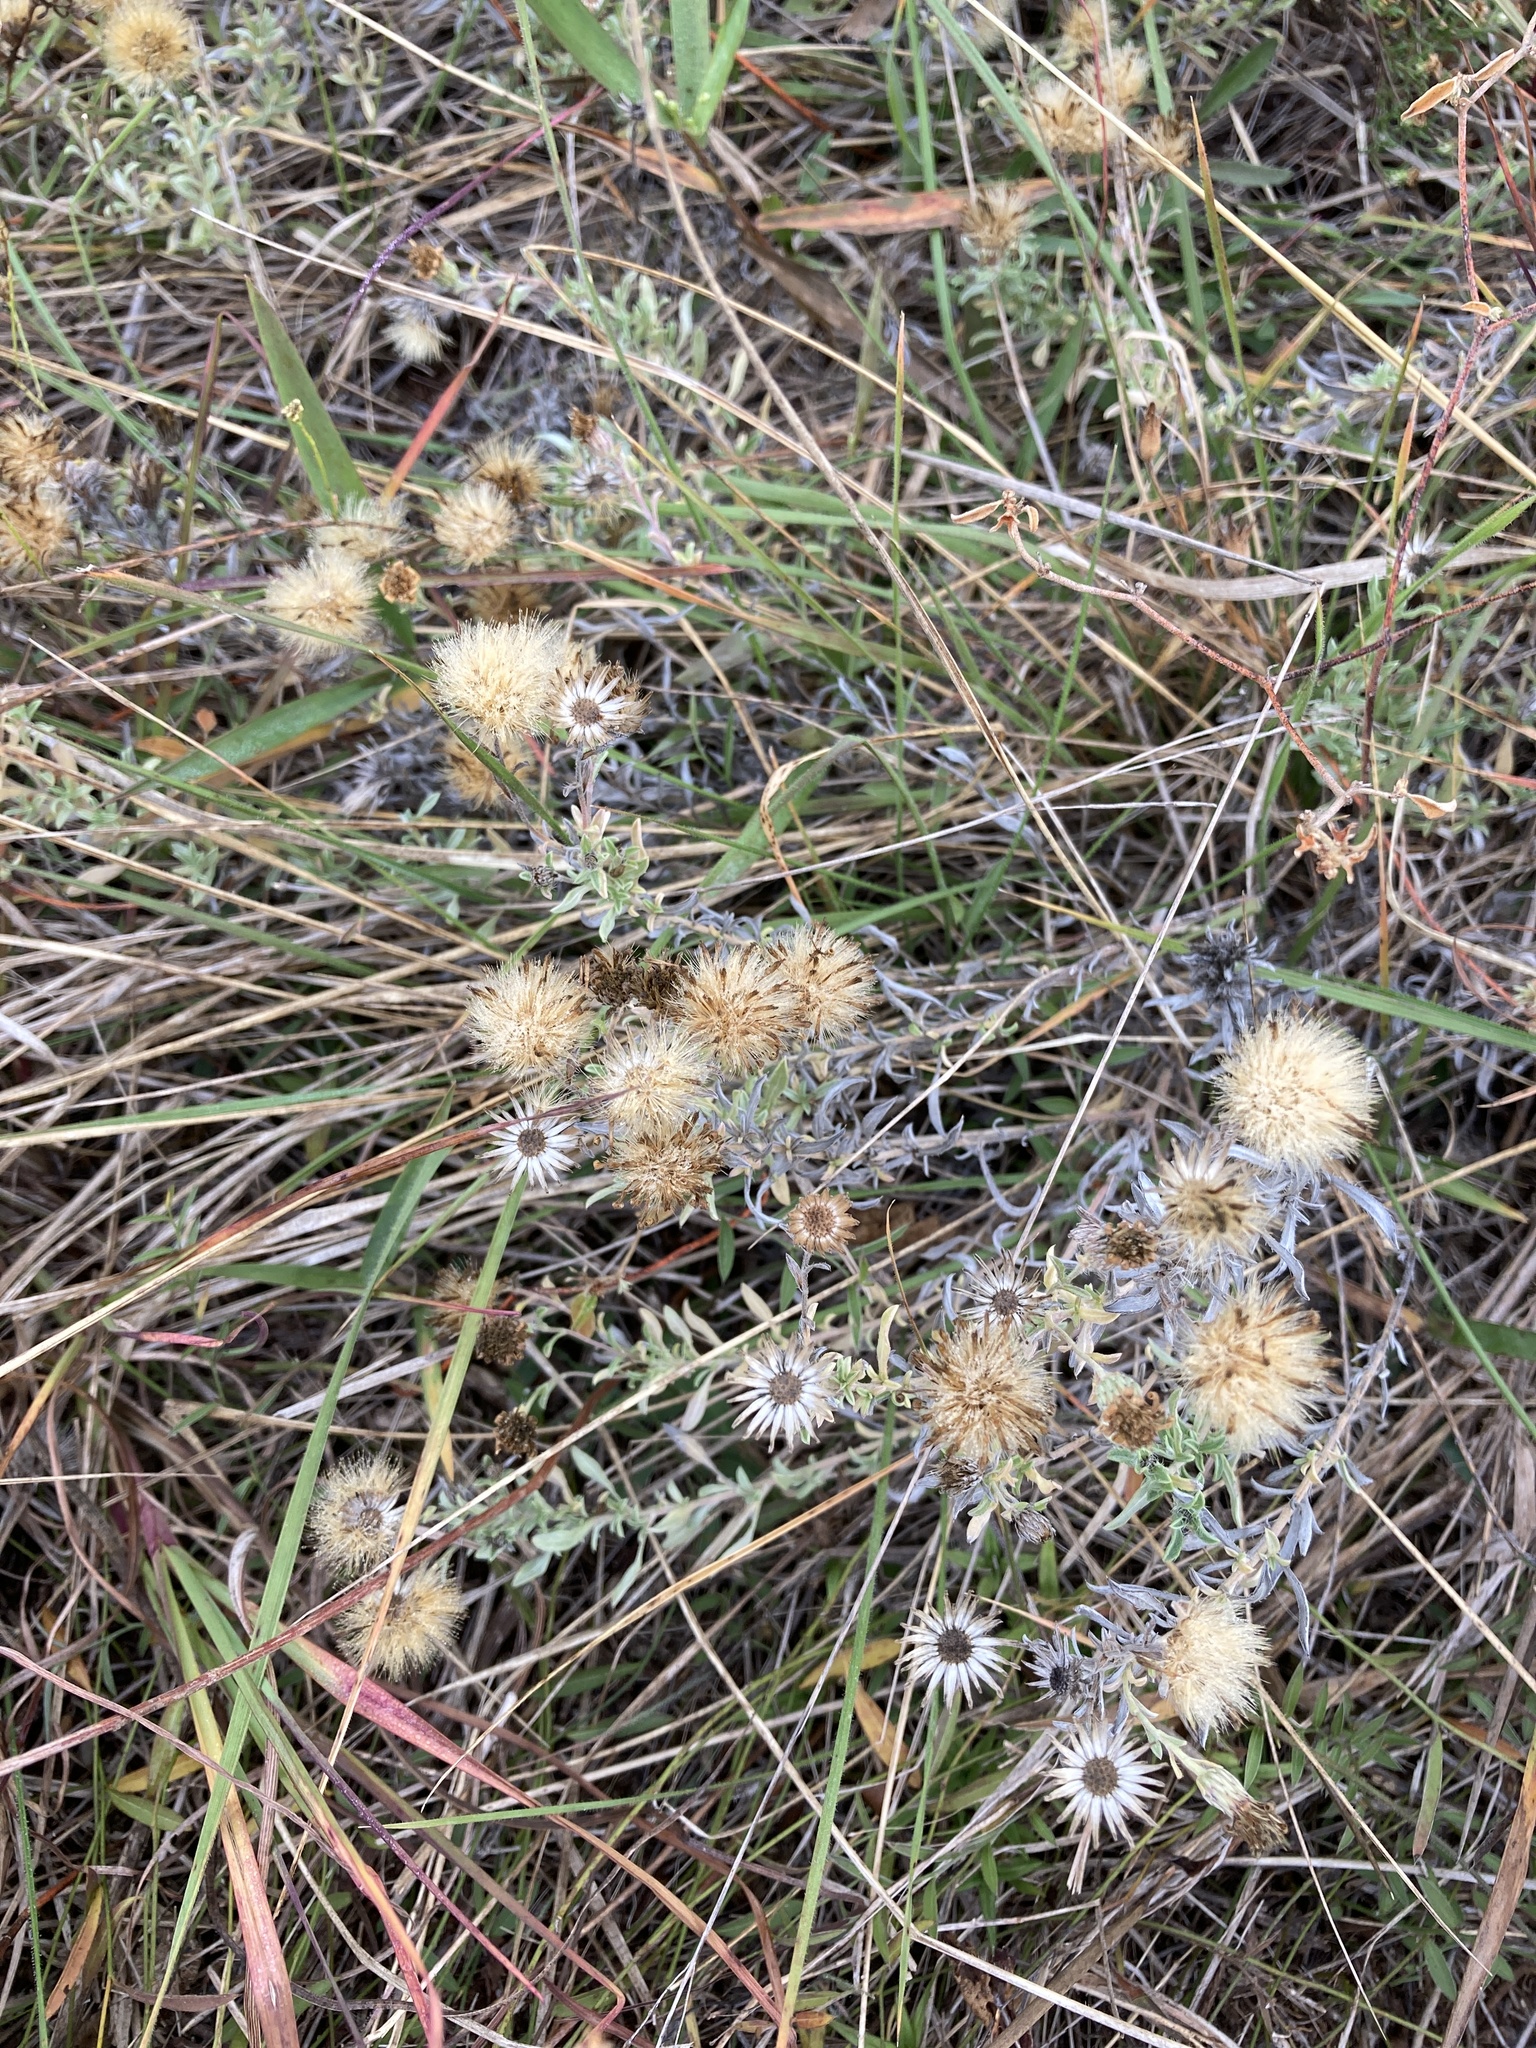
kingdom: Plantae
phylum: Tracheophyta
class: Magnoliopsida
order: Asterales
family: Asteraceae
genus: Heterotheca
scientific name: Heterotheca canescens
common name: Hoary golden-aster
